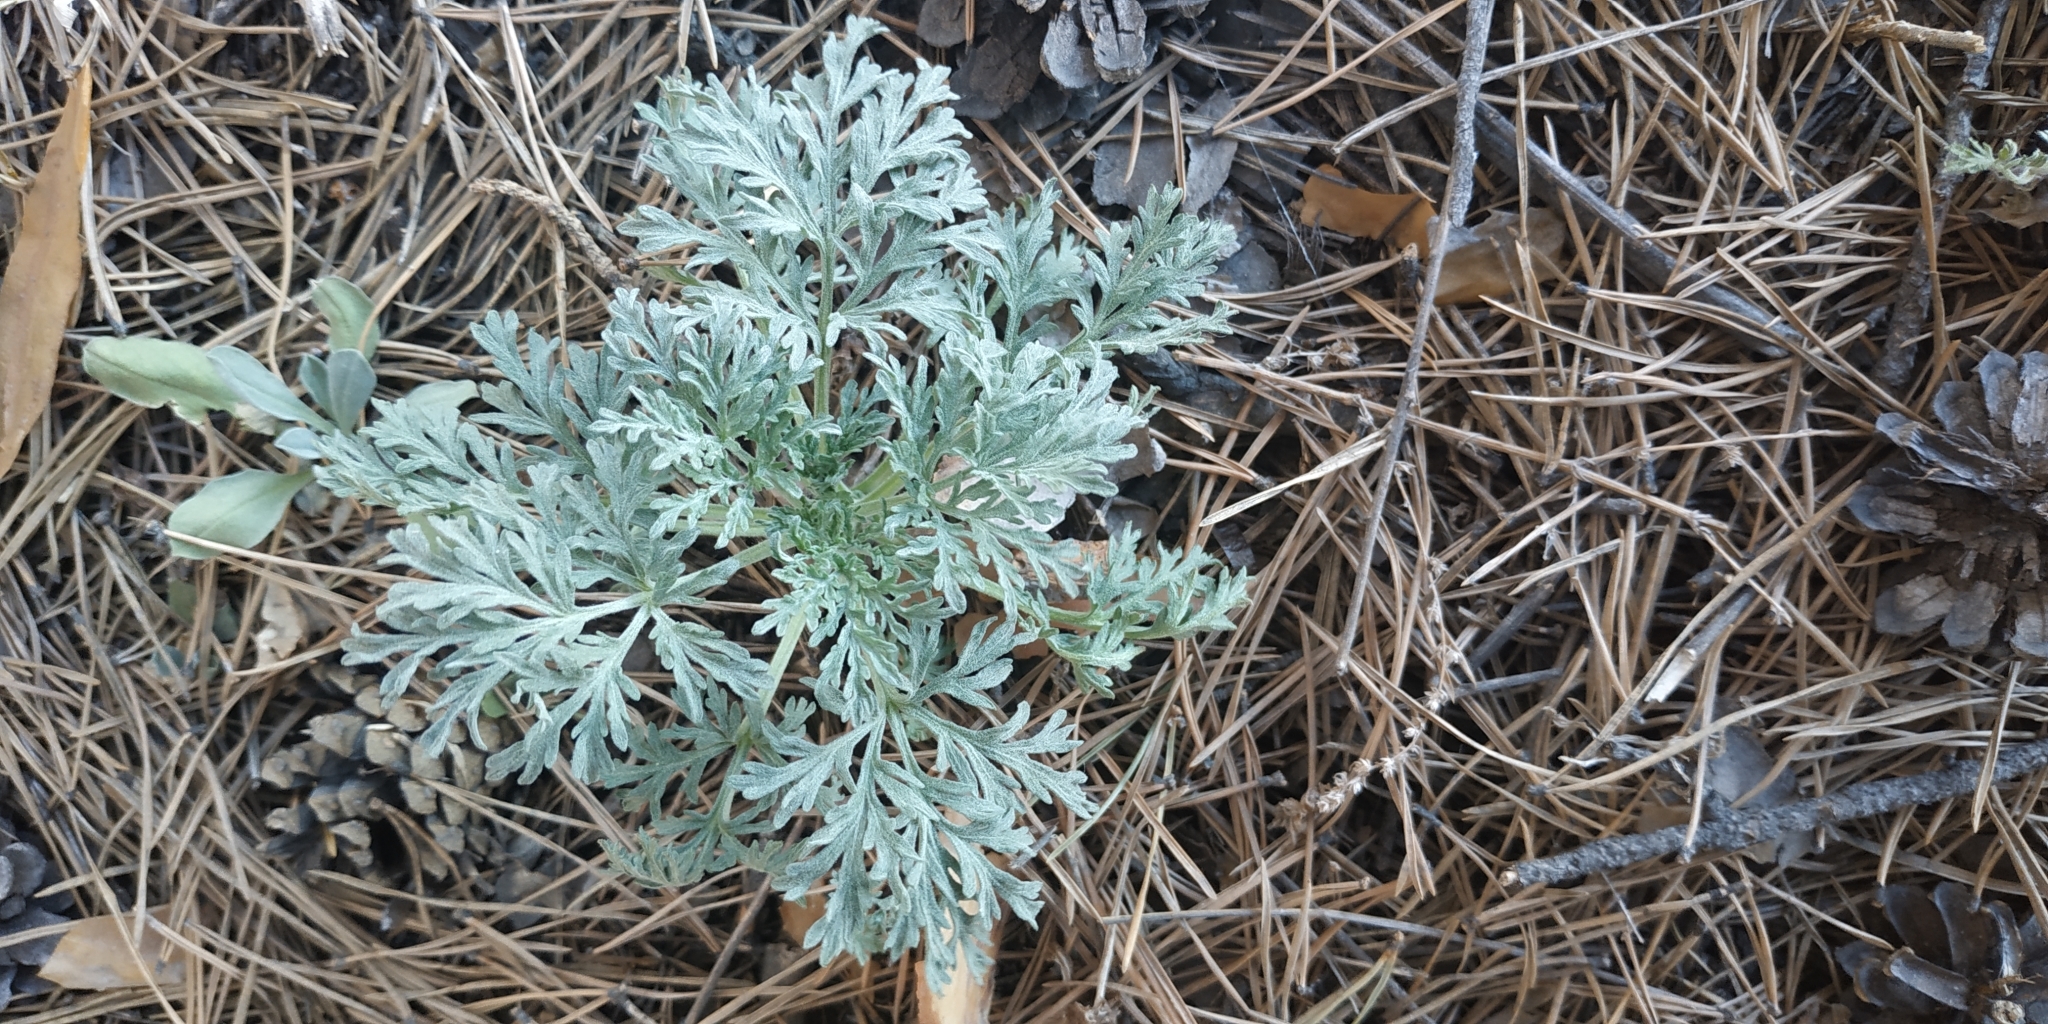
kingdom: Plantae
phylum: Tracheophyta
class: Magnoliopsida
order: Asterales
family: Asteraceae
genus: Artemisia
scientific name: Artemisia sieversiana
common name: Sieversian wormwood
